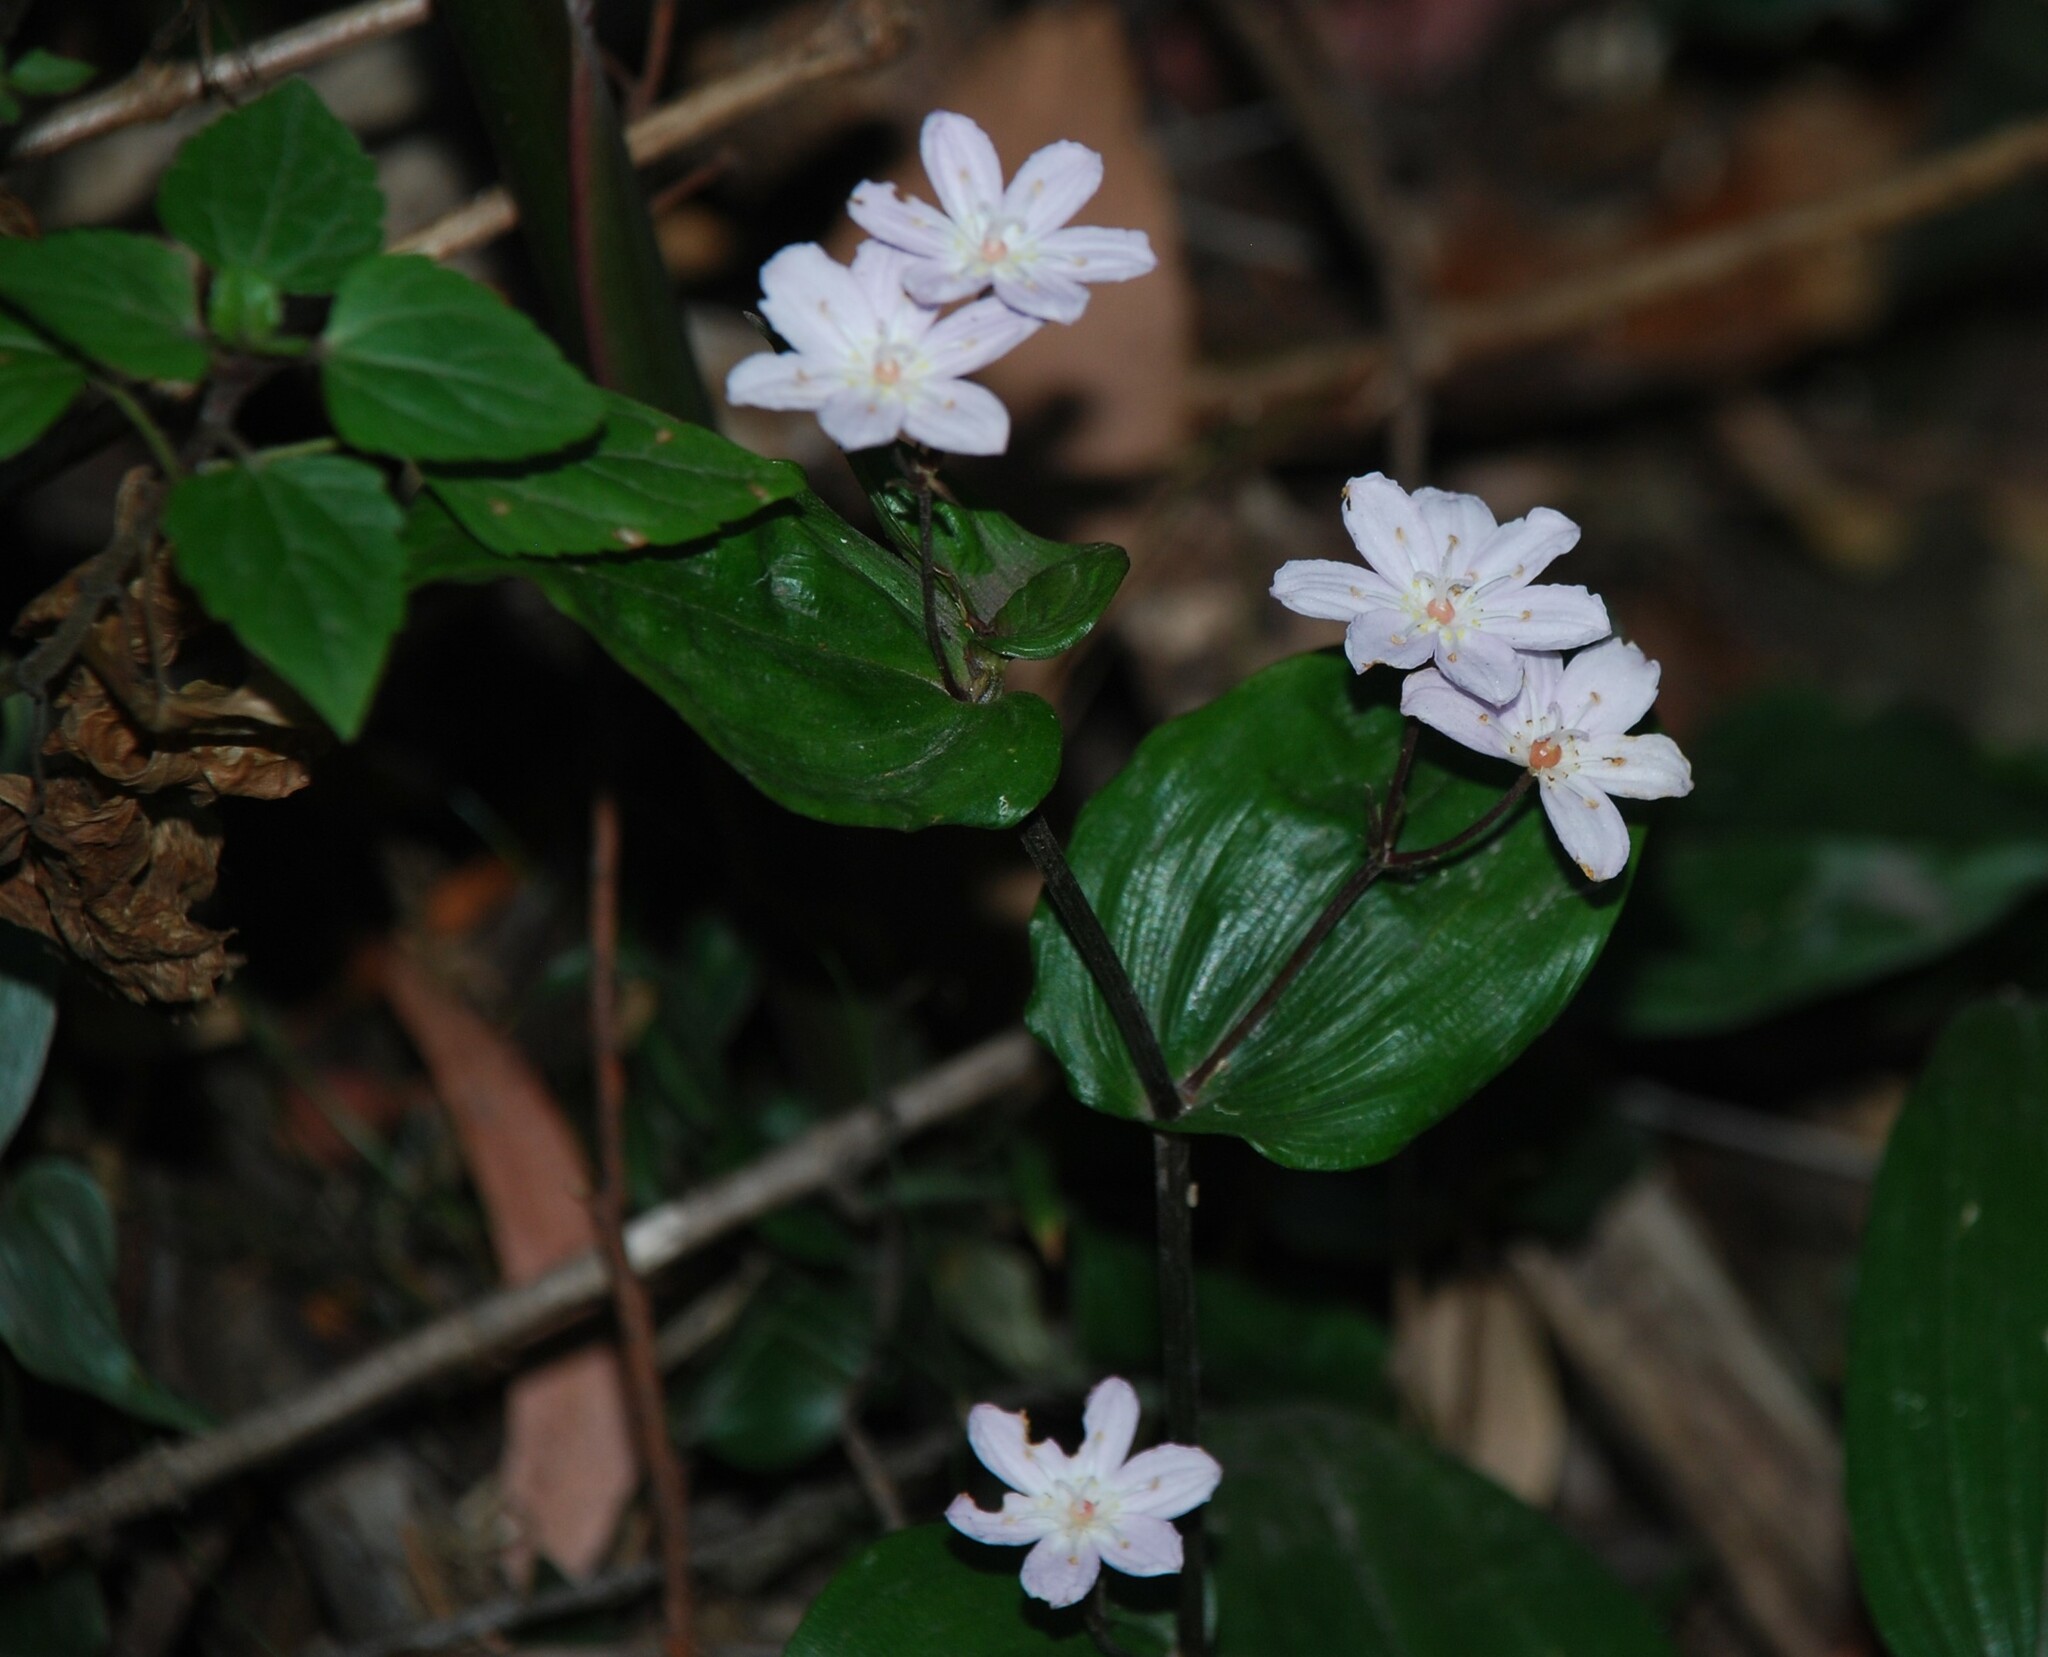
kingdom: Plantae
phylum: Tracheophyta
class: Liliopsida
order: Liliales
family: Colchicaceae
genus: Tripladenia
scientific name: Tripladenia cunninghamii
